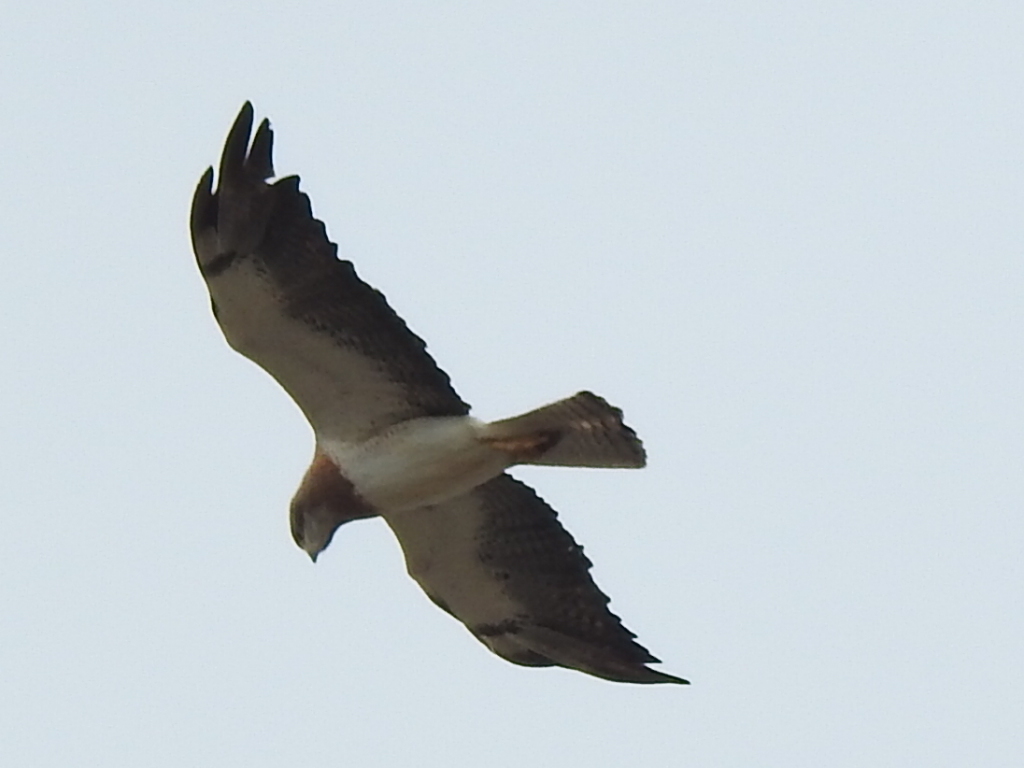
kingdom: Animalia
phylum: Chordata
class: Aves
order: Accipitriformes
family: Accipitridae
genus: Buteo
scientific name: Buteo swainsoni
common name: Swainson's hawk
